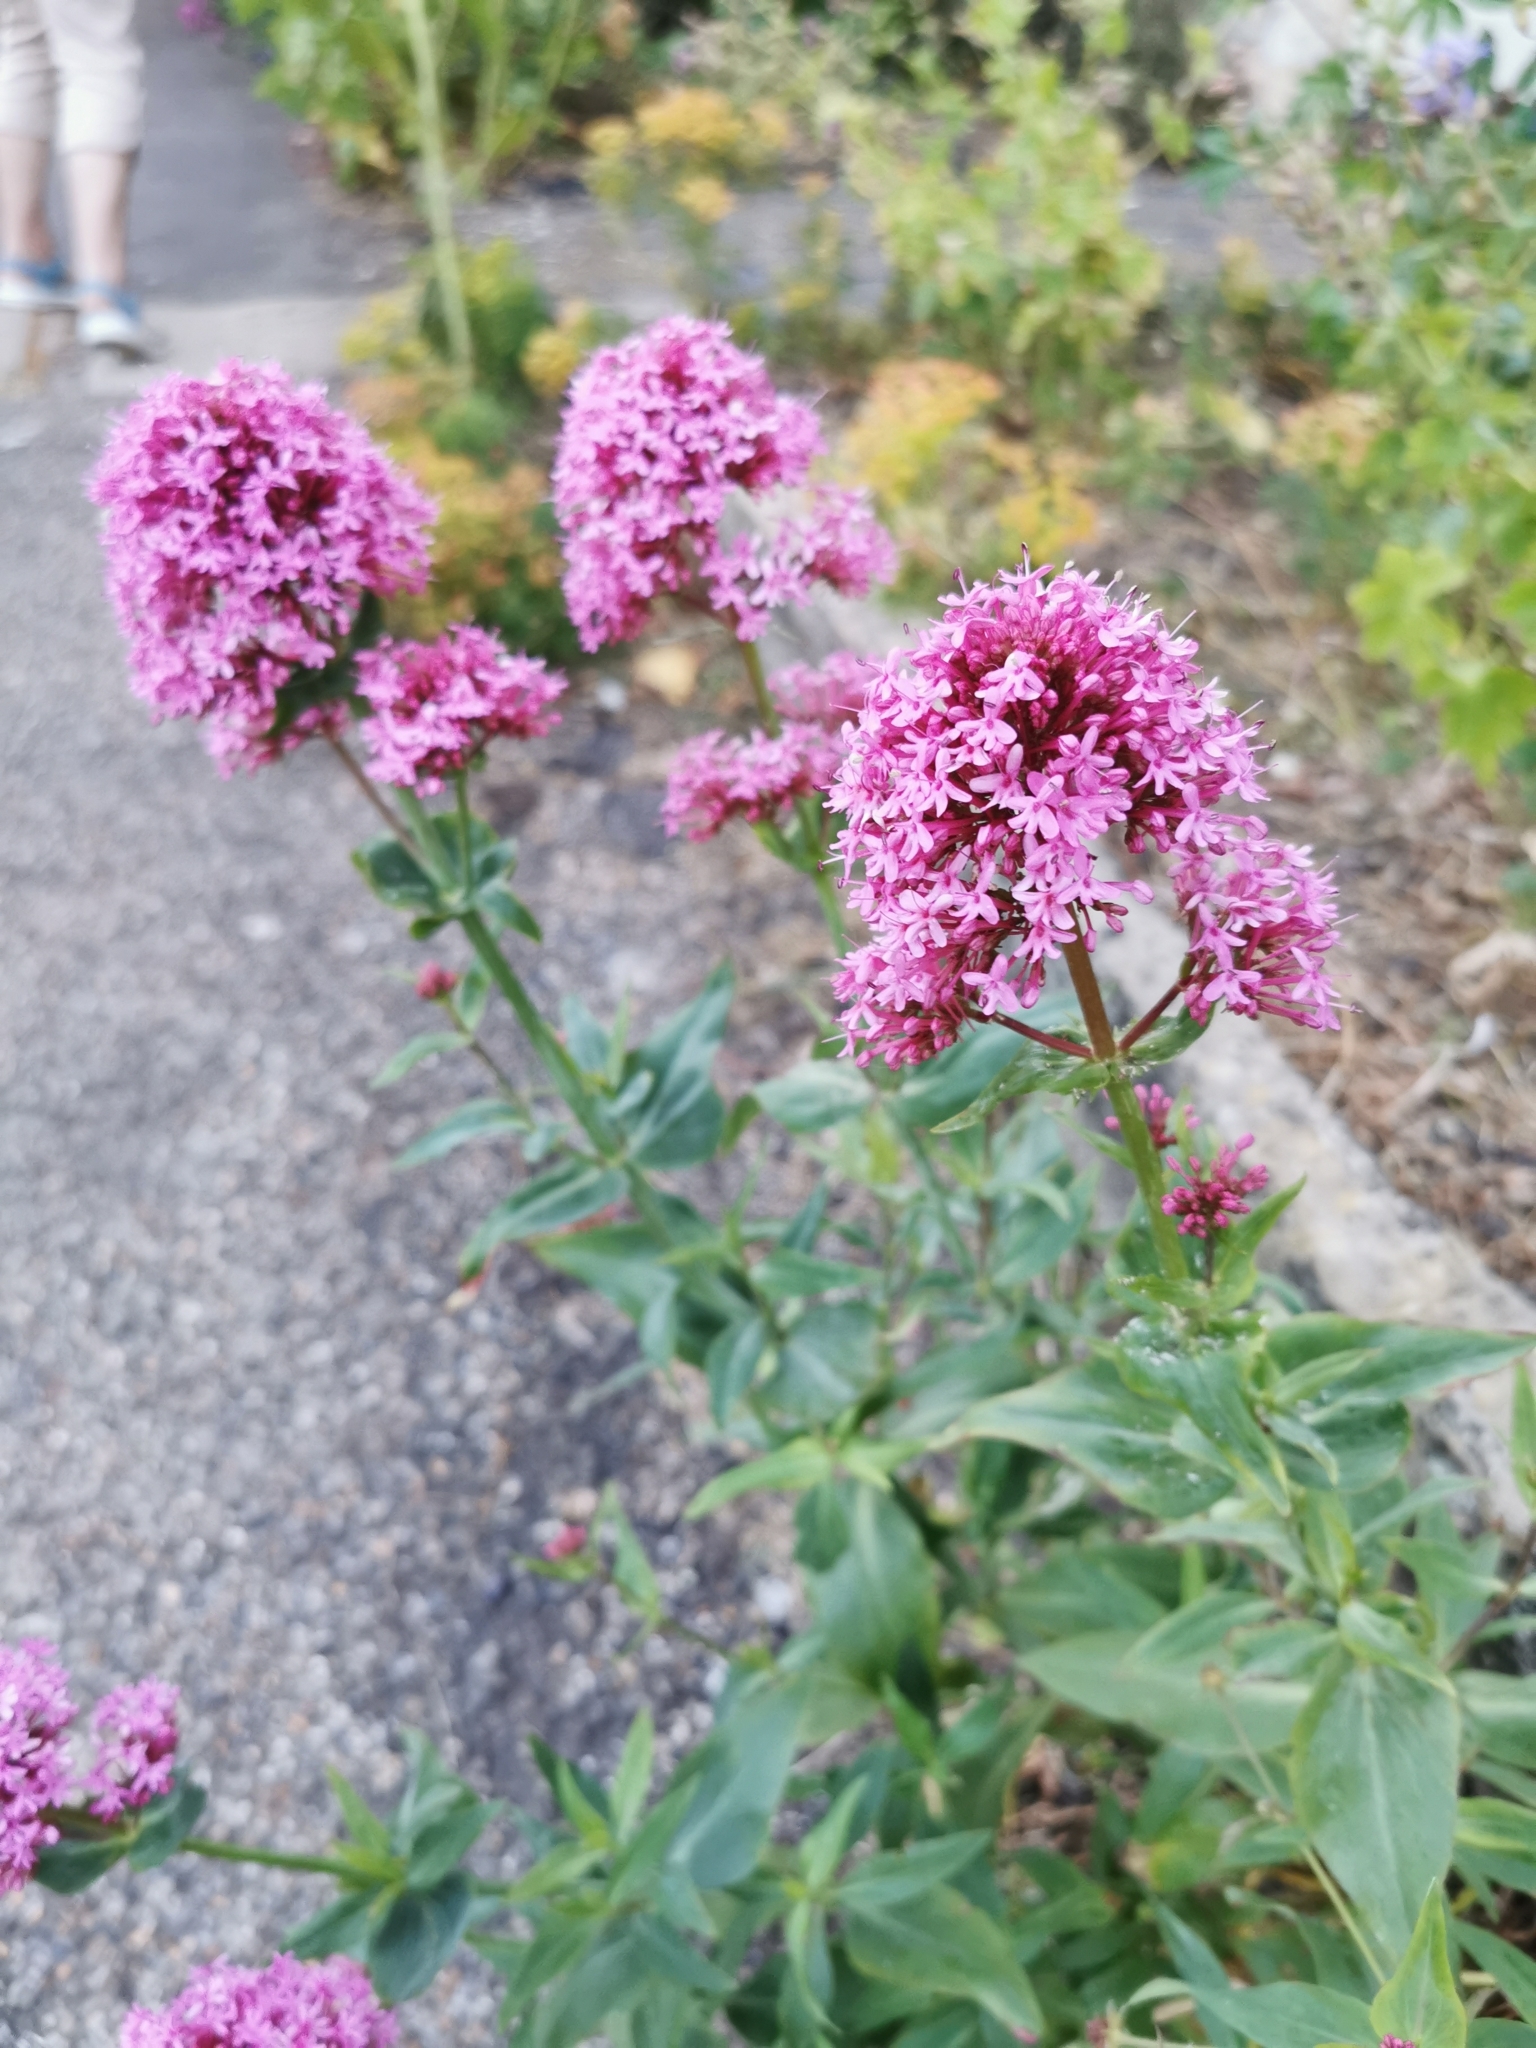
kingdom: Plantae
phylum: Tracheophyta
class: Magnoliopsida
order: Dipsacales
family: Caprifoliaceae
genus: Centranthus
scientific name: Centranthus ruber
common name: Red valerian
